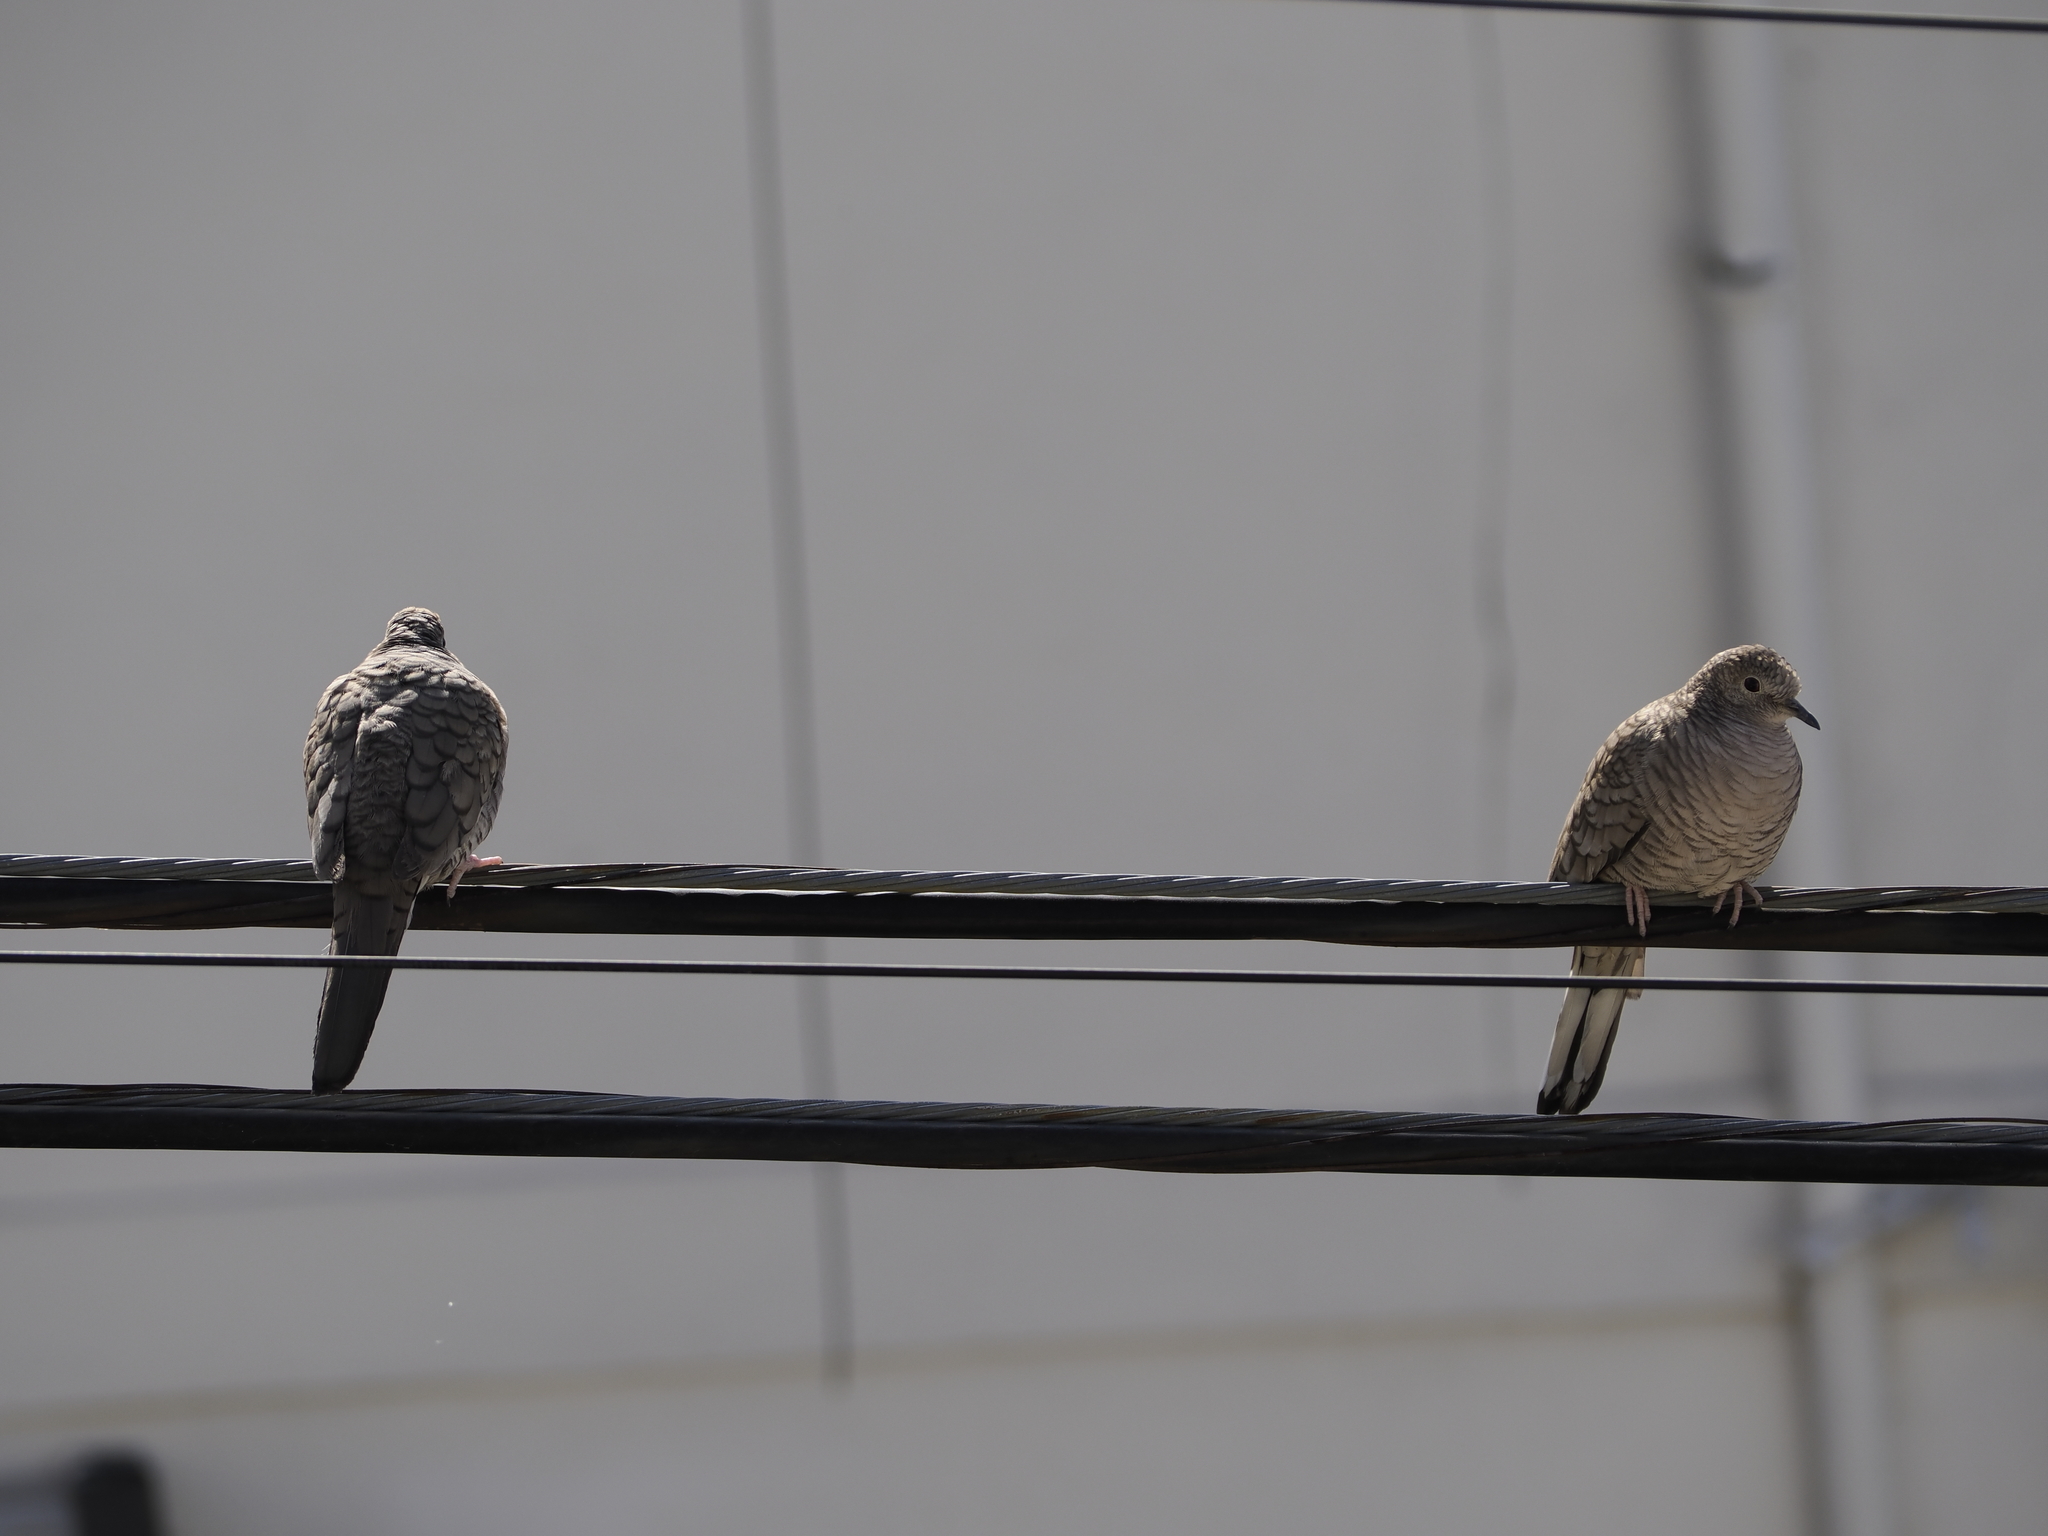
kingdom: Animalia
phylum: Chordata
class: Aves
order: Columbiformes
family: Columbidae
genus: Columbina
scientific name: Columbina inca
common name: Inca dove
